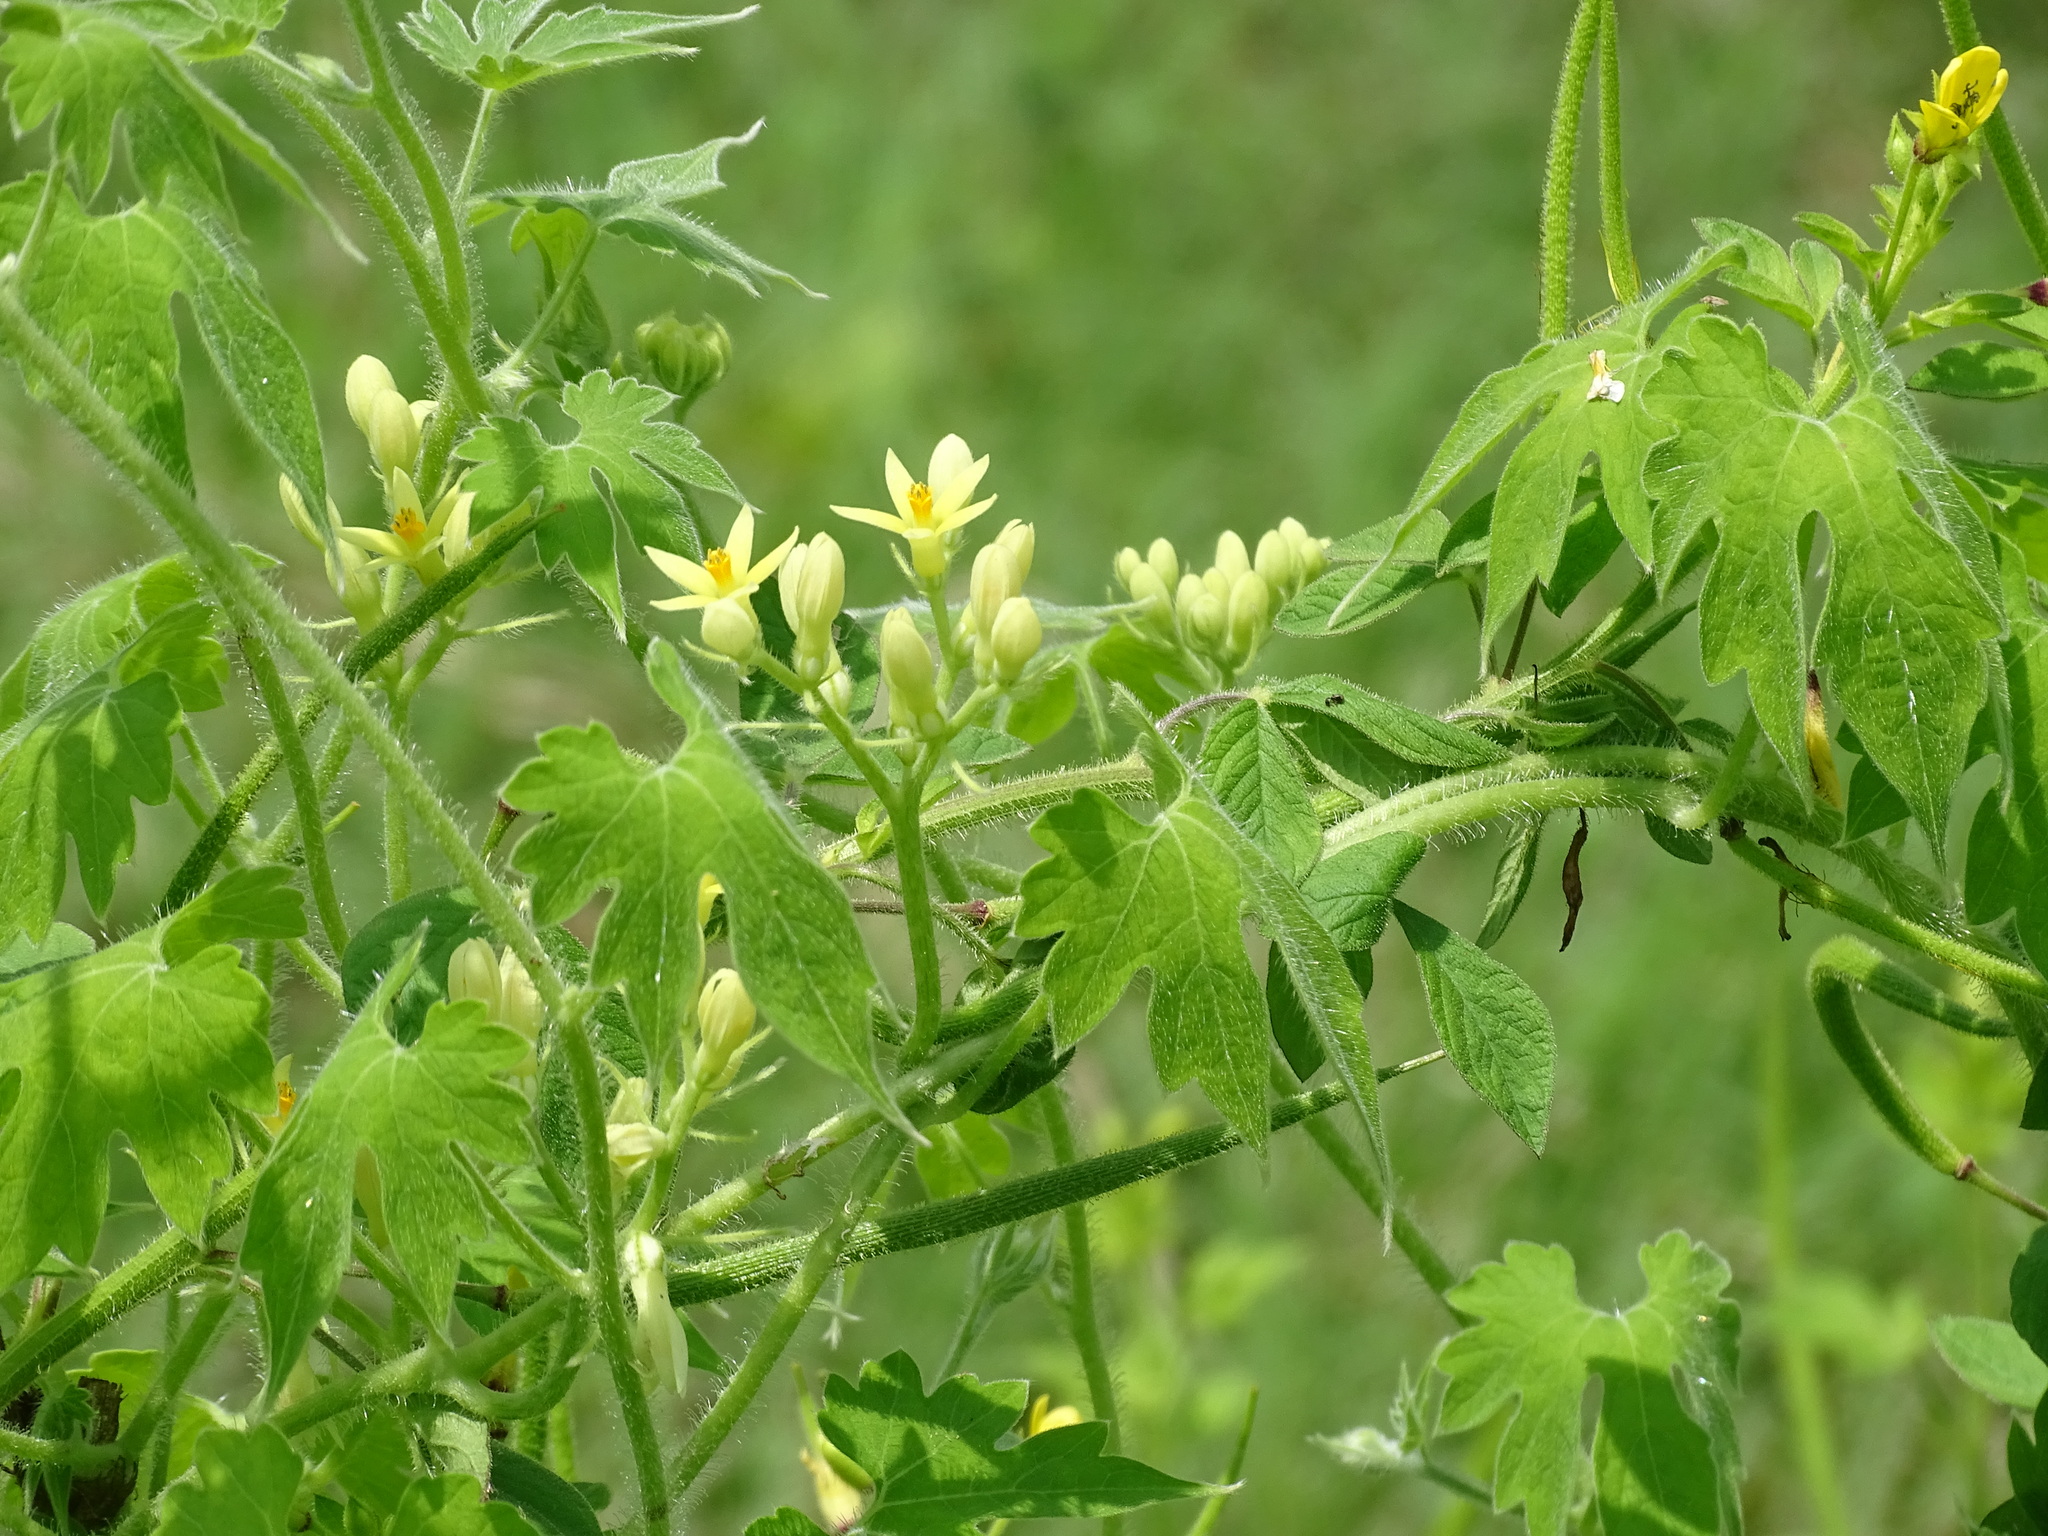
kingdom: Plantae
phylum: Tracheophyta
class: Magnoliopsida
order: Cornales
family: Loasaceae
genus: Gronovia
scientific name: Gronovia scandens
